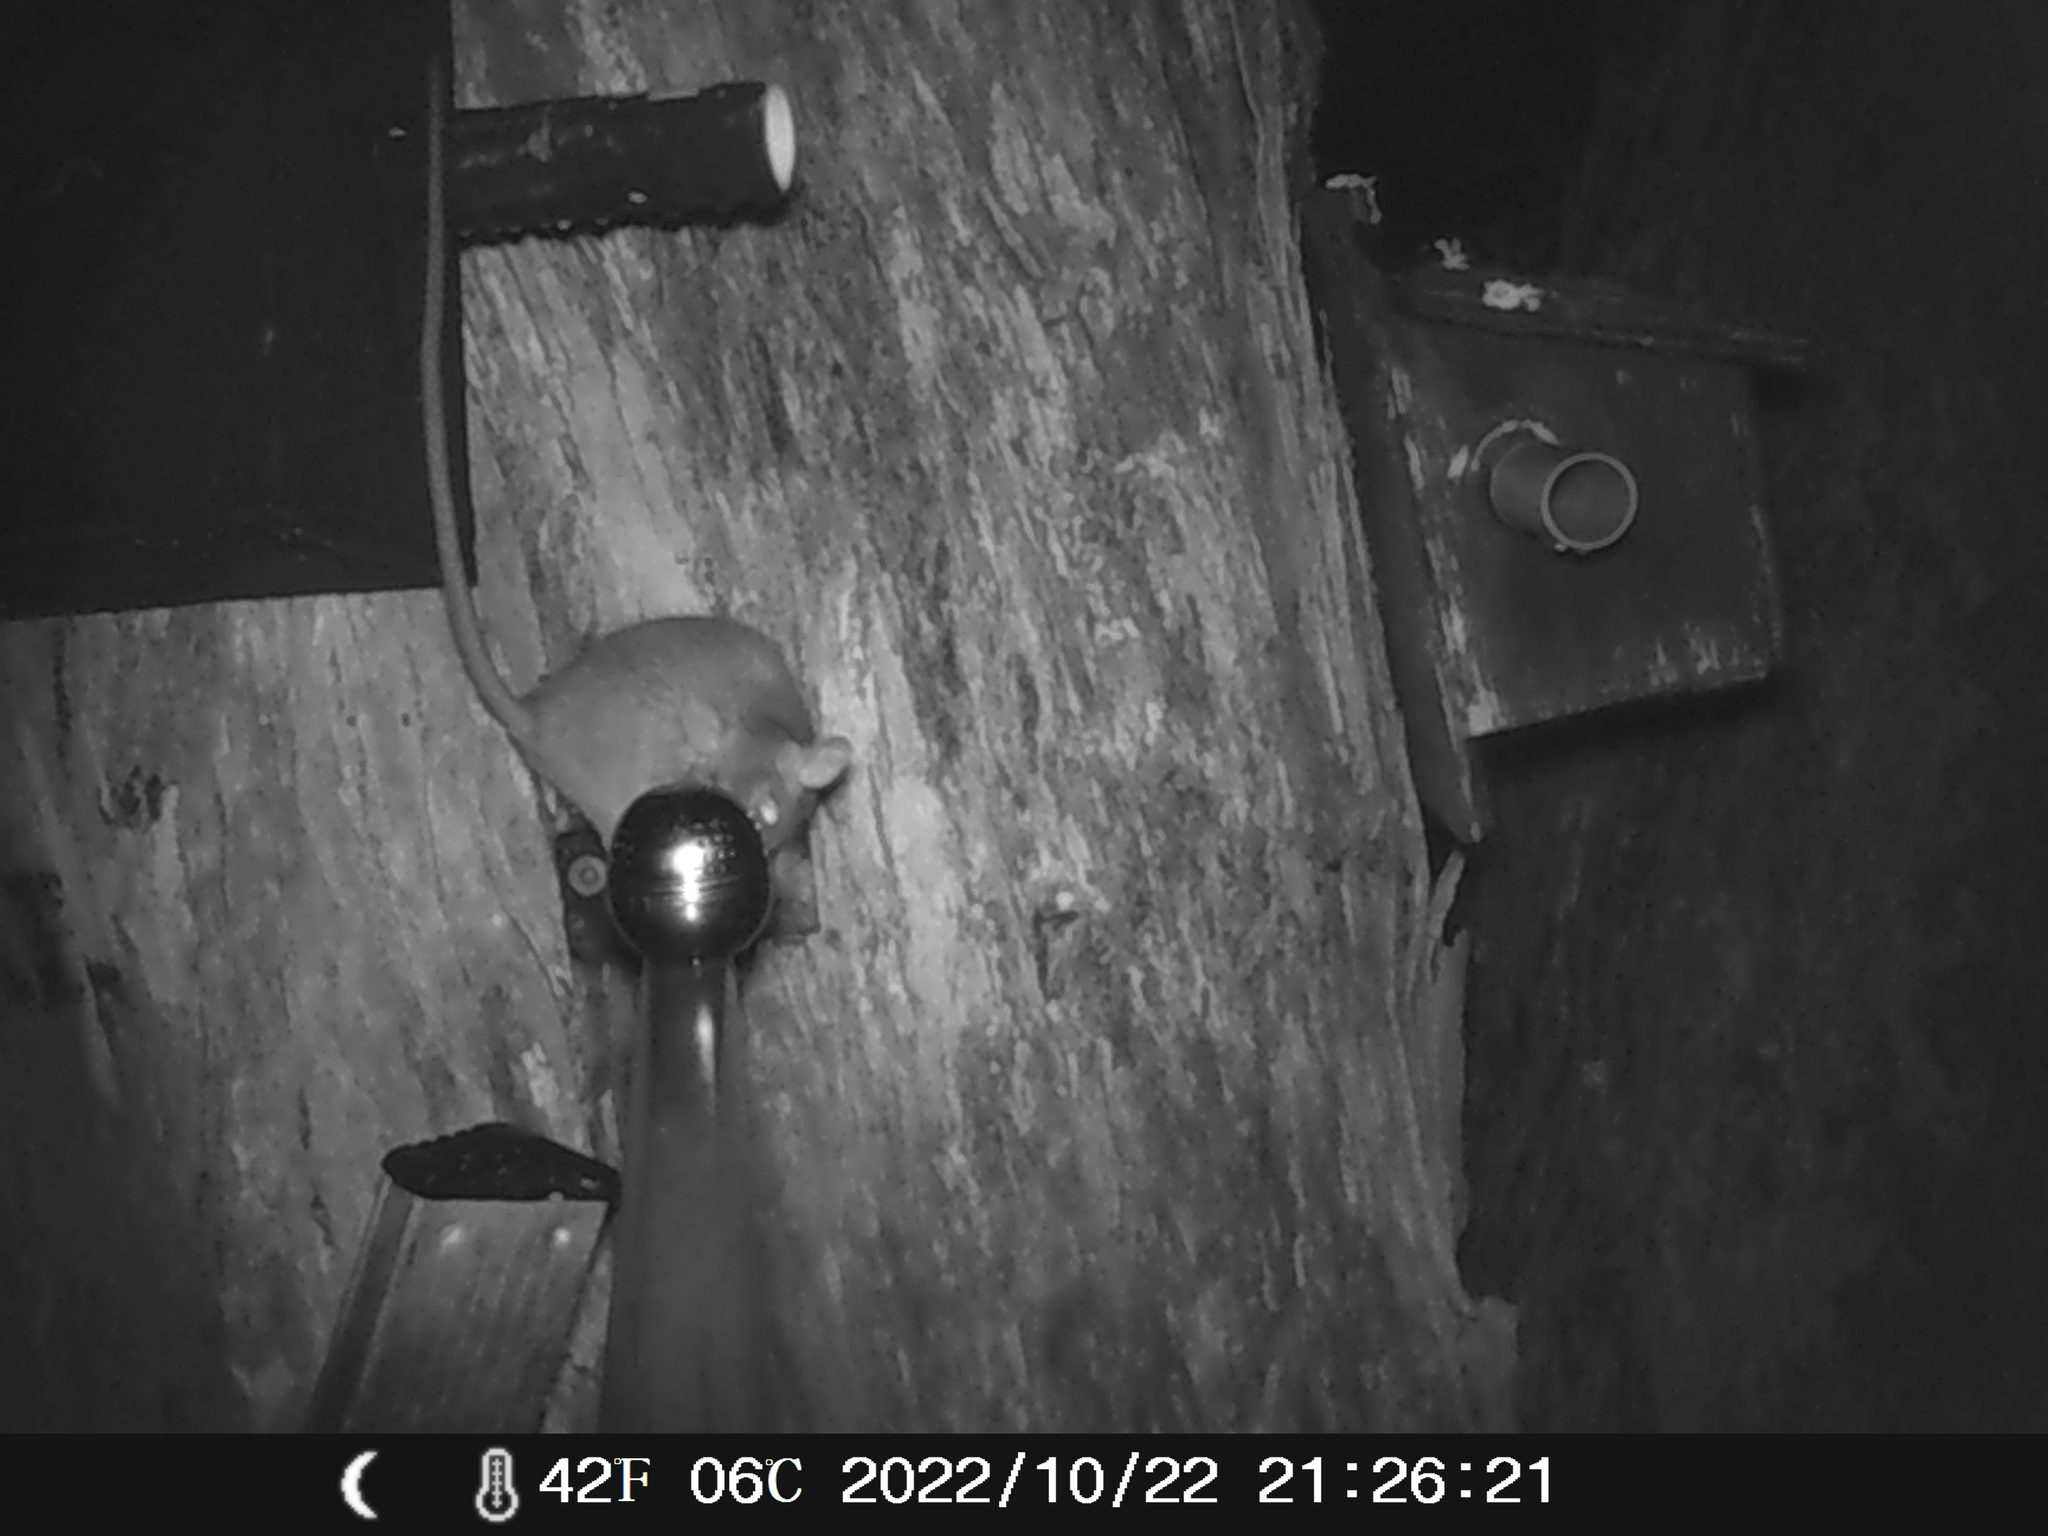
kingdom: Animalia
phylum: Chordata
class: Mammalia
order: Rodentia
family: Muridae
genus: Rattus
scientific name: Rattus rattus
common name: Black rat
